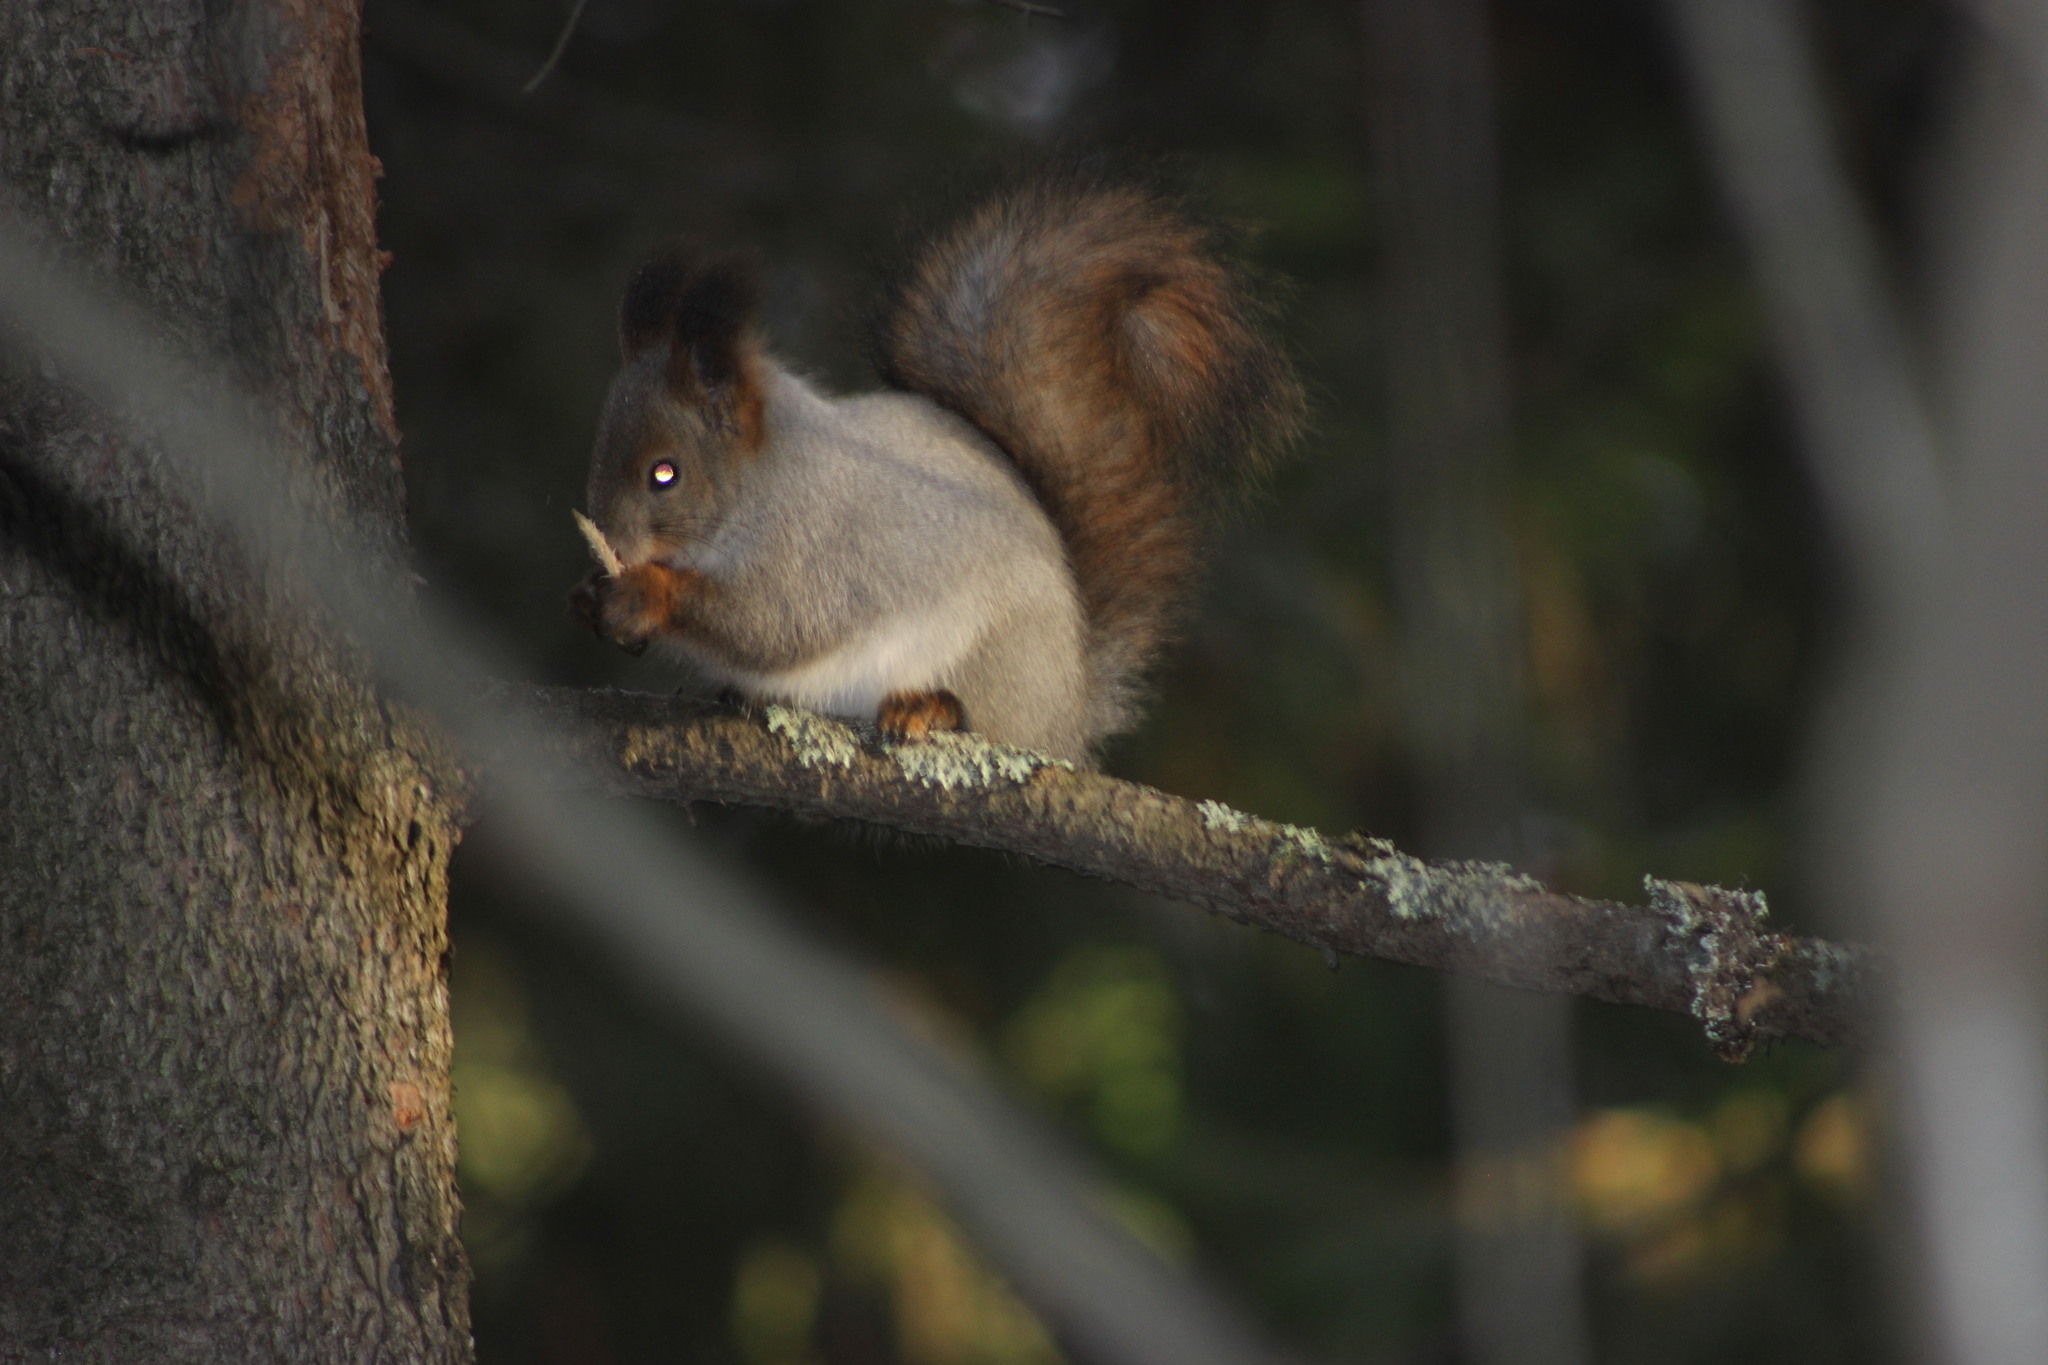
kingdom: Animalia
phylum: Chordata
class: Mammalia
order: Rodentia
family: Sciuridae
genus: Sciurus
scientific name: Sciurus vulgaris
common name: Eurasian red squirrel
